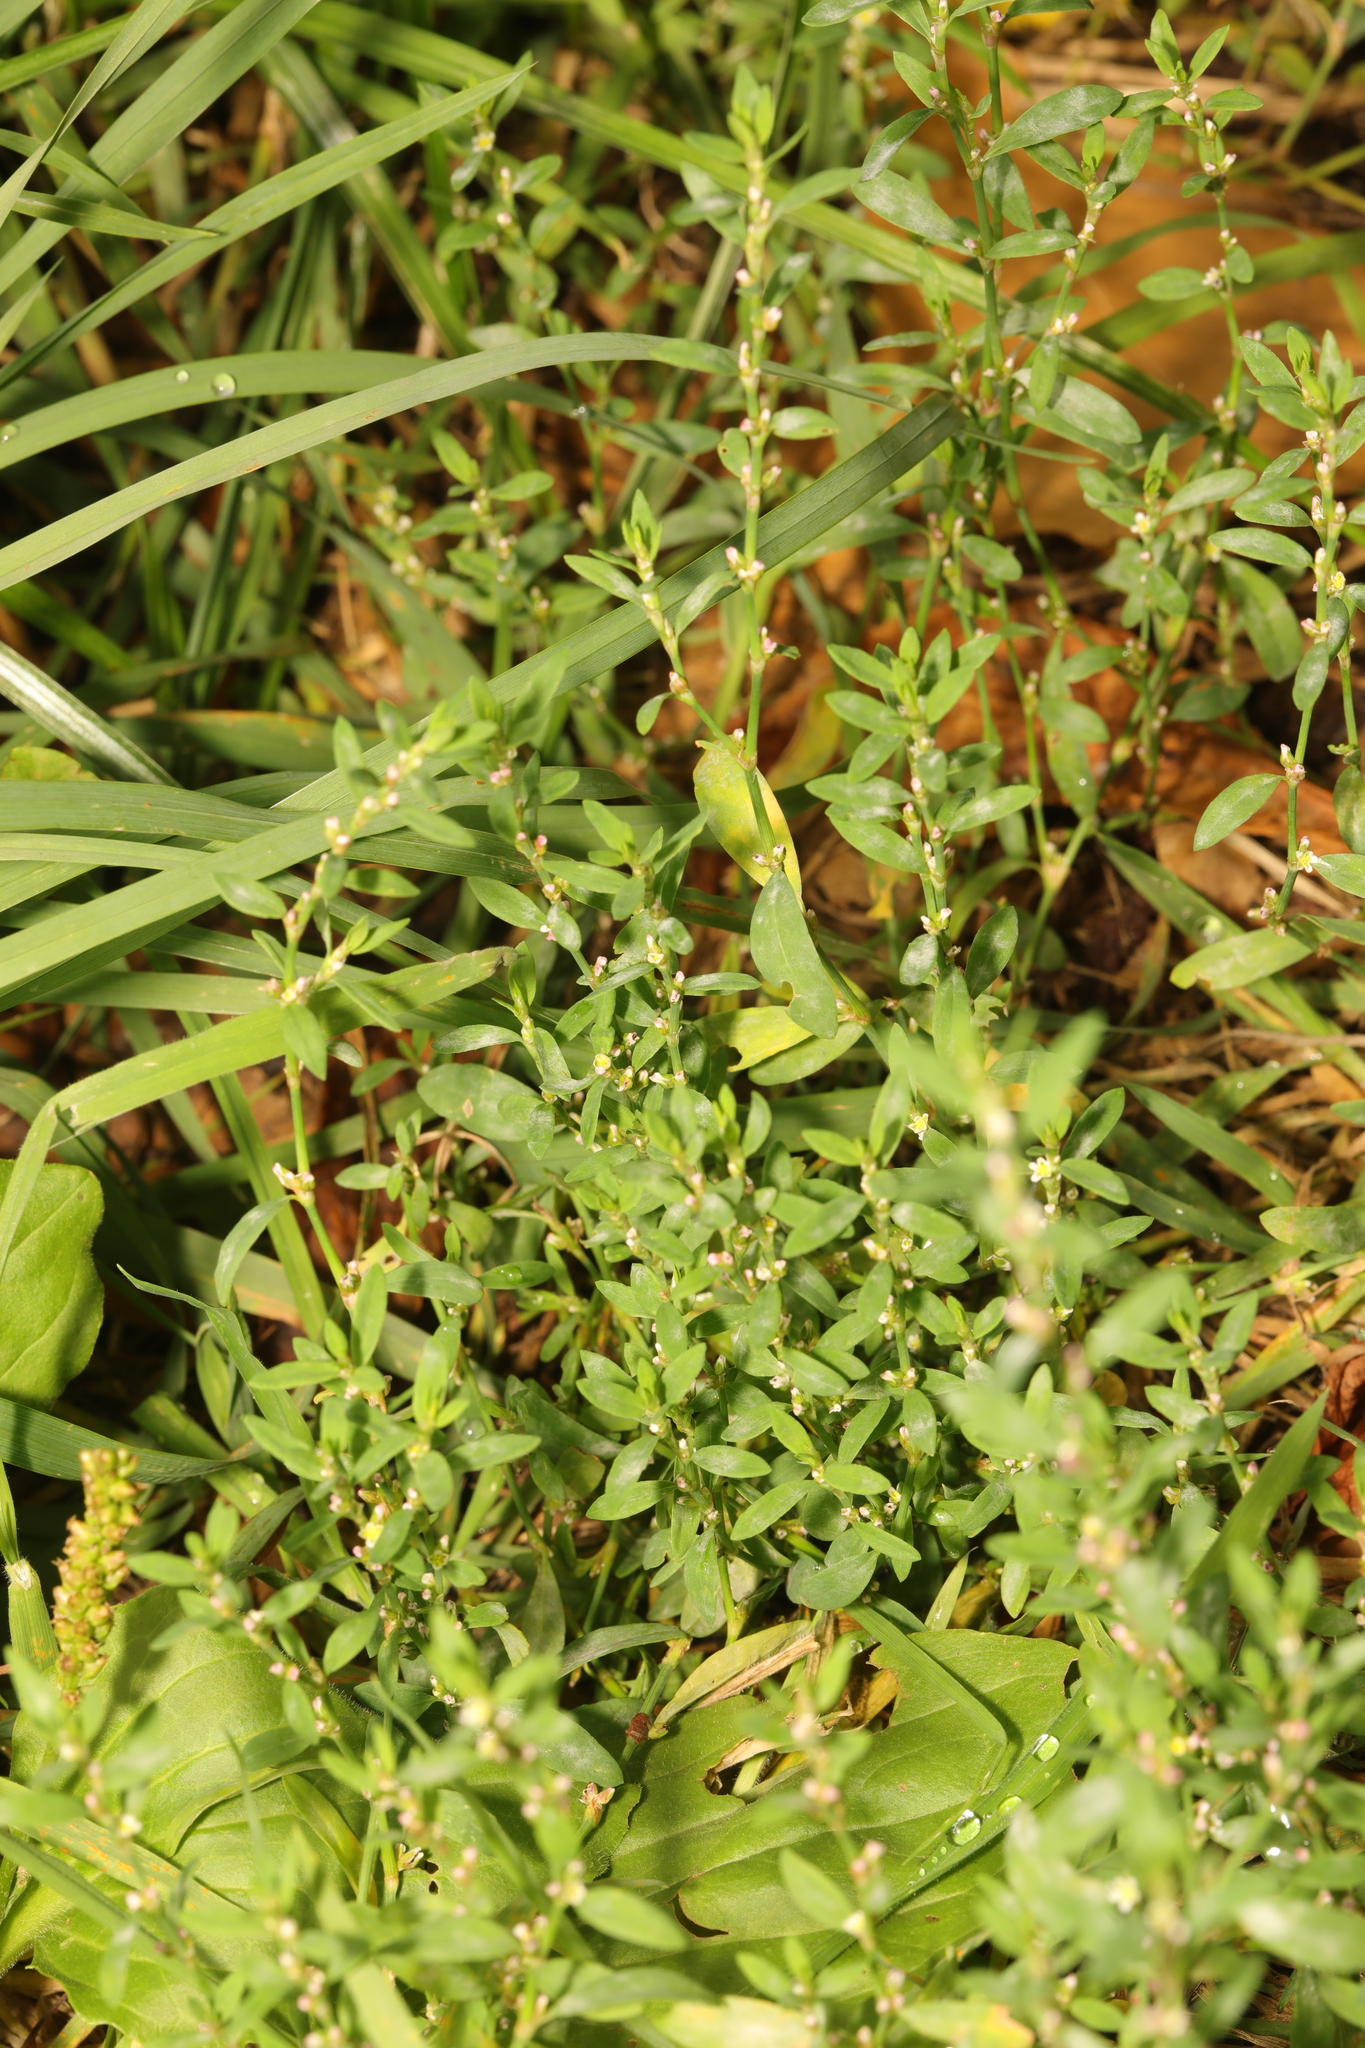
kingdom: Plantae
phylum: Tracheophyta
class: Magnoliopsida
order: Caryophyllales
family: Polygonaceae
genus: Polygonum
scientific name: Polygonum aviculare
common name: Prostrate knotweed
